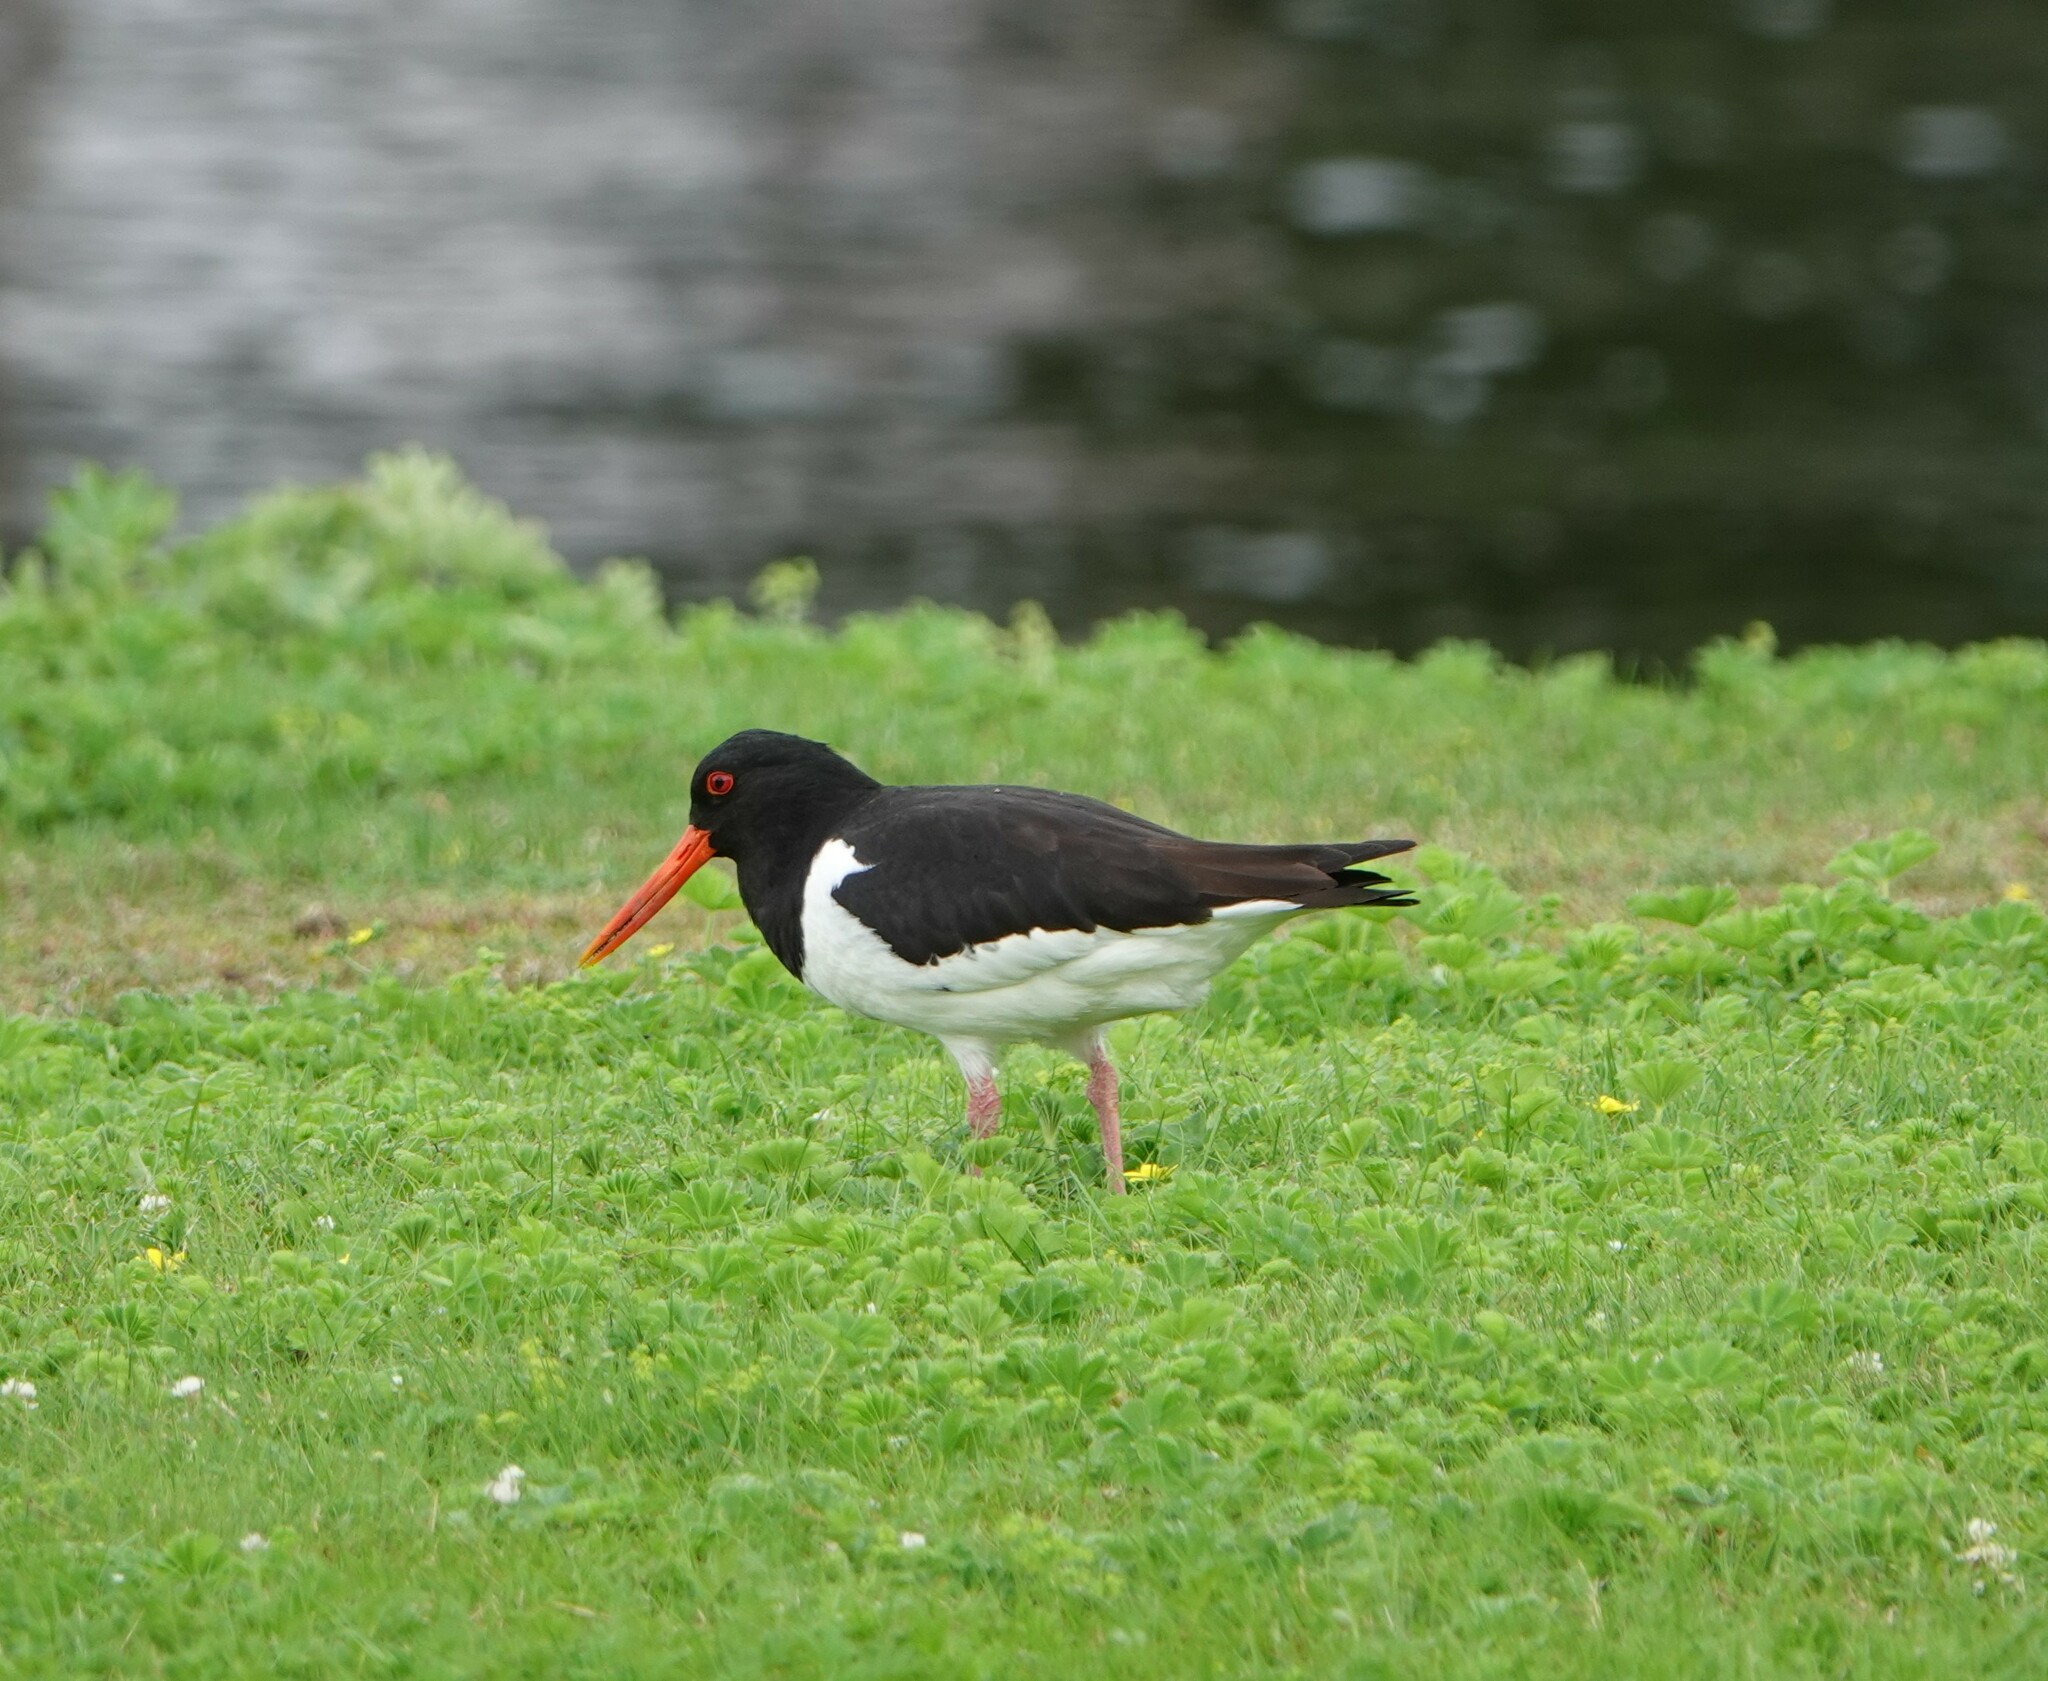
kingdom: Animalia
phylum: Chordata
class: Aves
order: Charadriiformes
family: Haematopodidae
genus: Haematopus
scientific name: Haematopus ostralegus
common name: Eurasian oystercatcher
